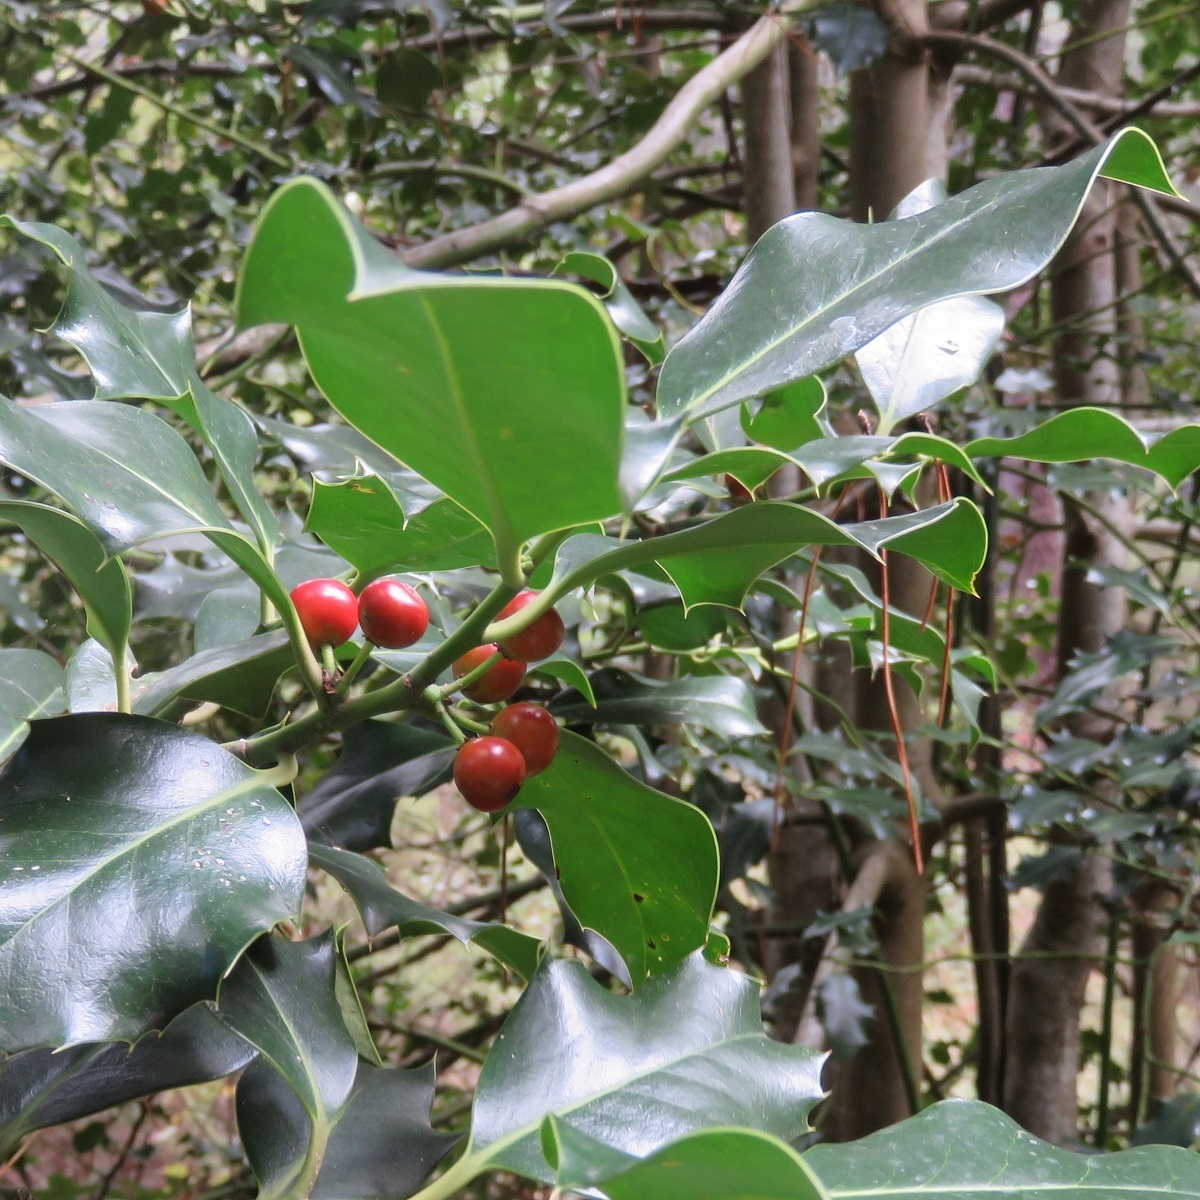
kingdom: Plantae
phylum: Tracheophyta
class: Magnoliopsida
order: Aquifoliales
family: Aquifoliaceae
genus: Ilex
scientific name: Ilex aquifolium
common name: English holly
